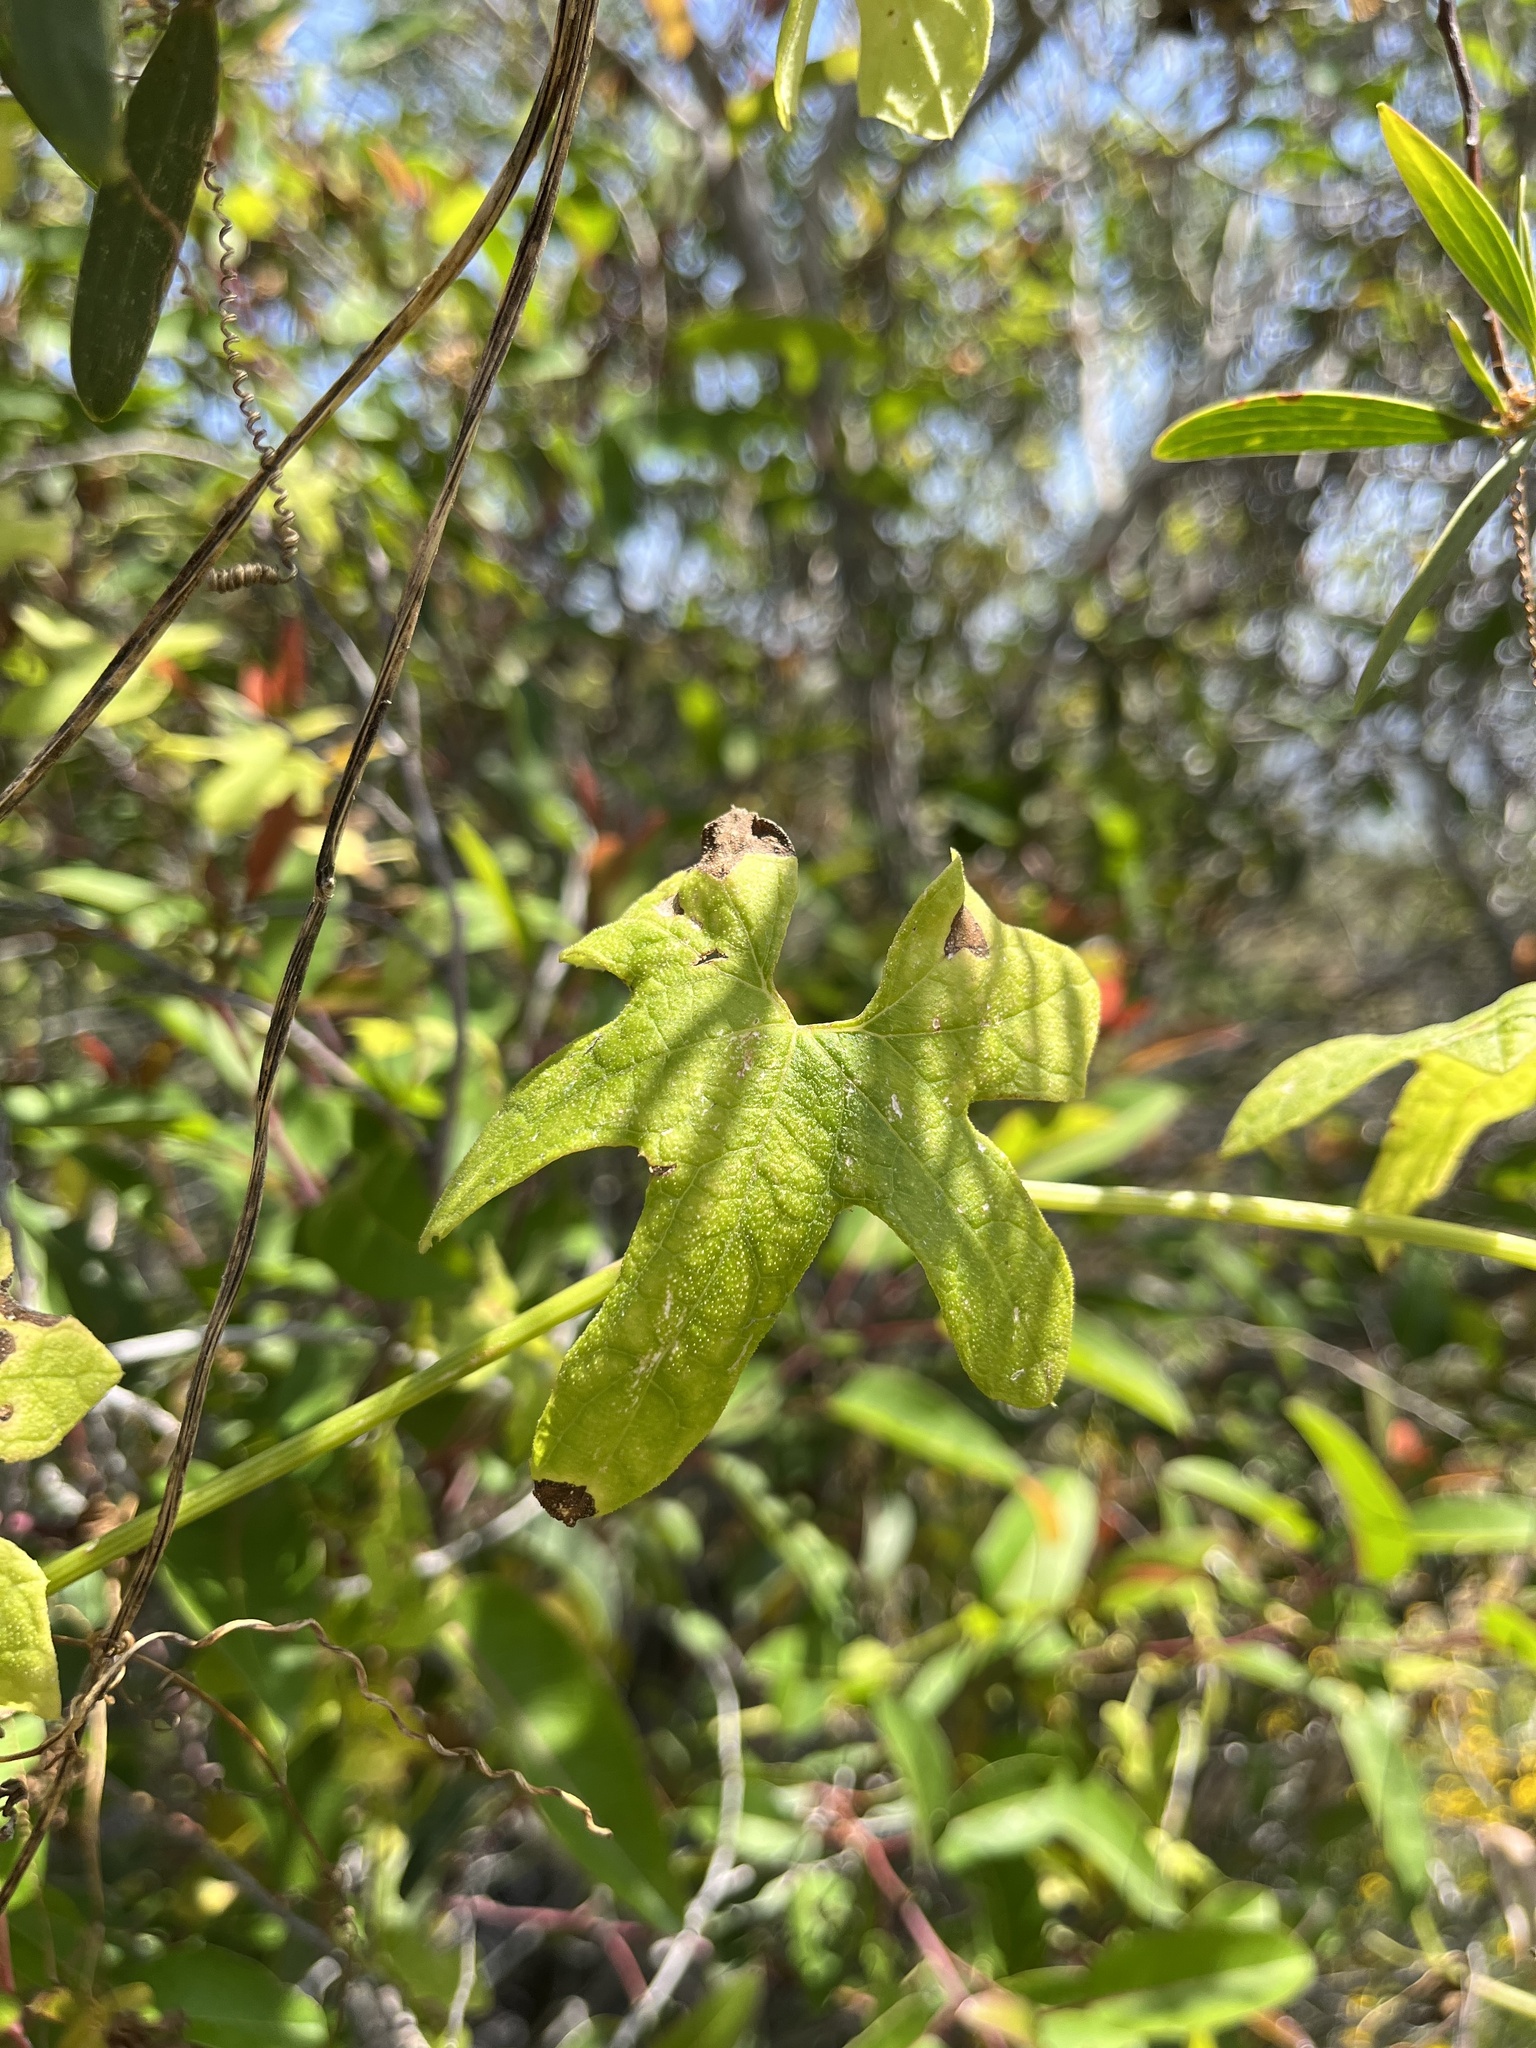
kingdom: Plantae
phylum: Tracheophyta
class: Magnoliopsida
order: Cucurbitales
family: Cucurbitaceae
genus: Marah
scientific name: Marah macrocarpa
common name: Cucamonga manroot
